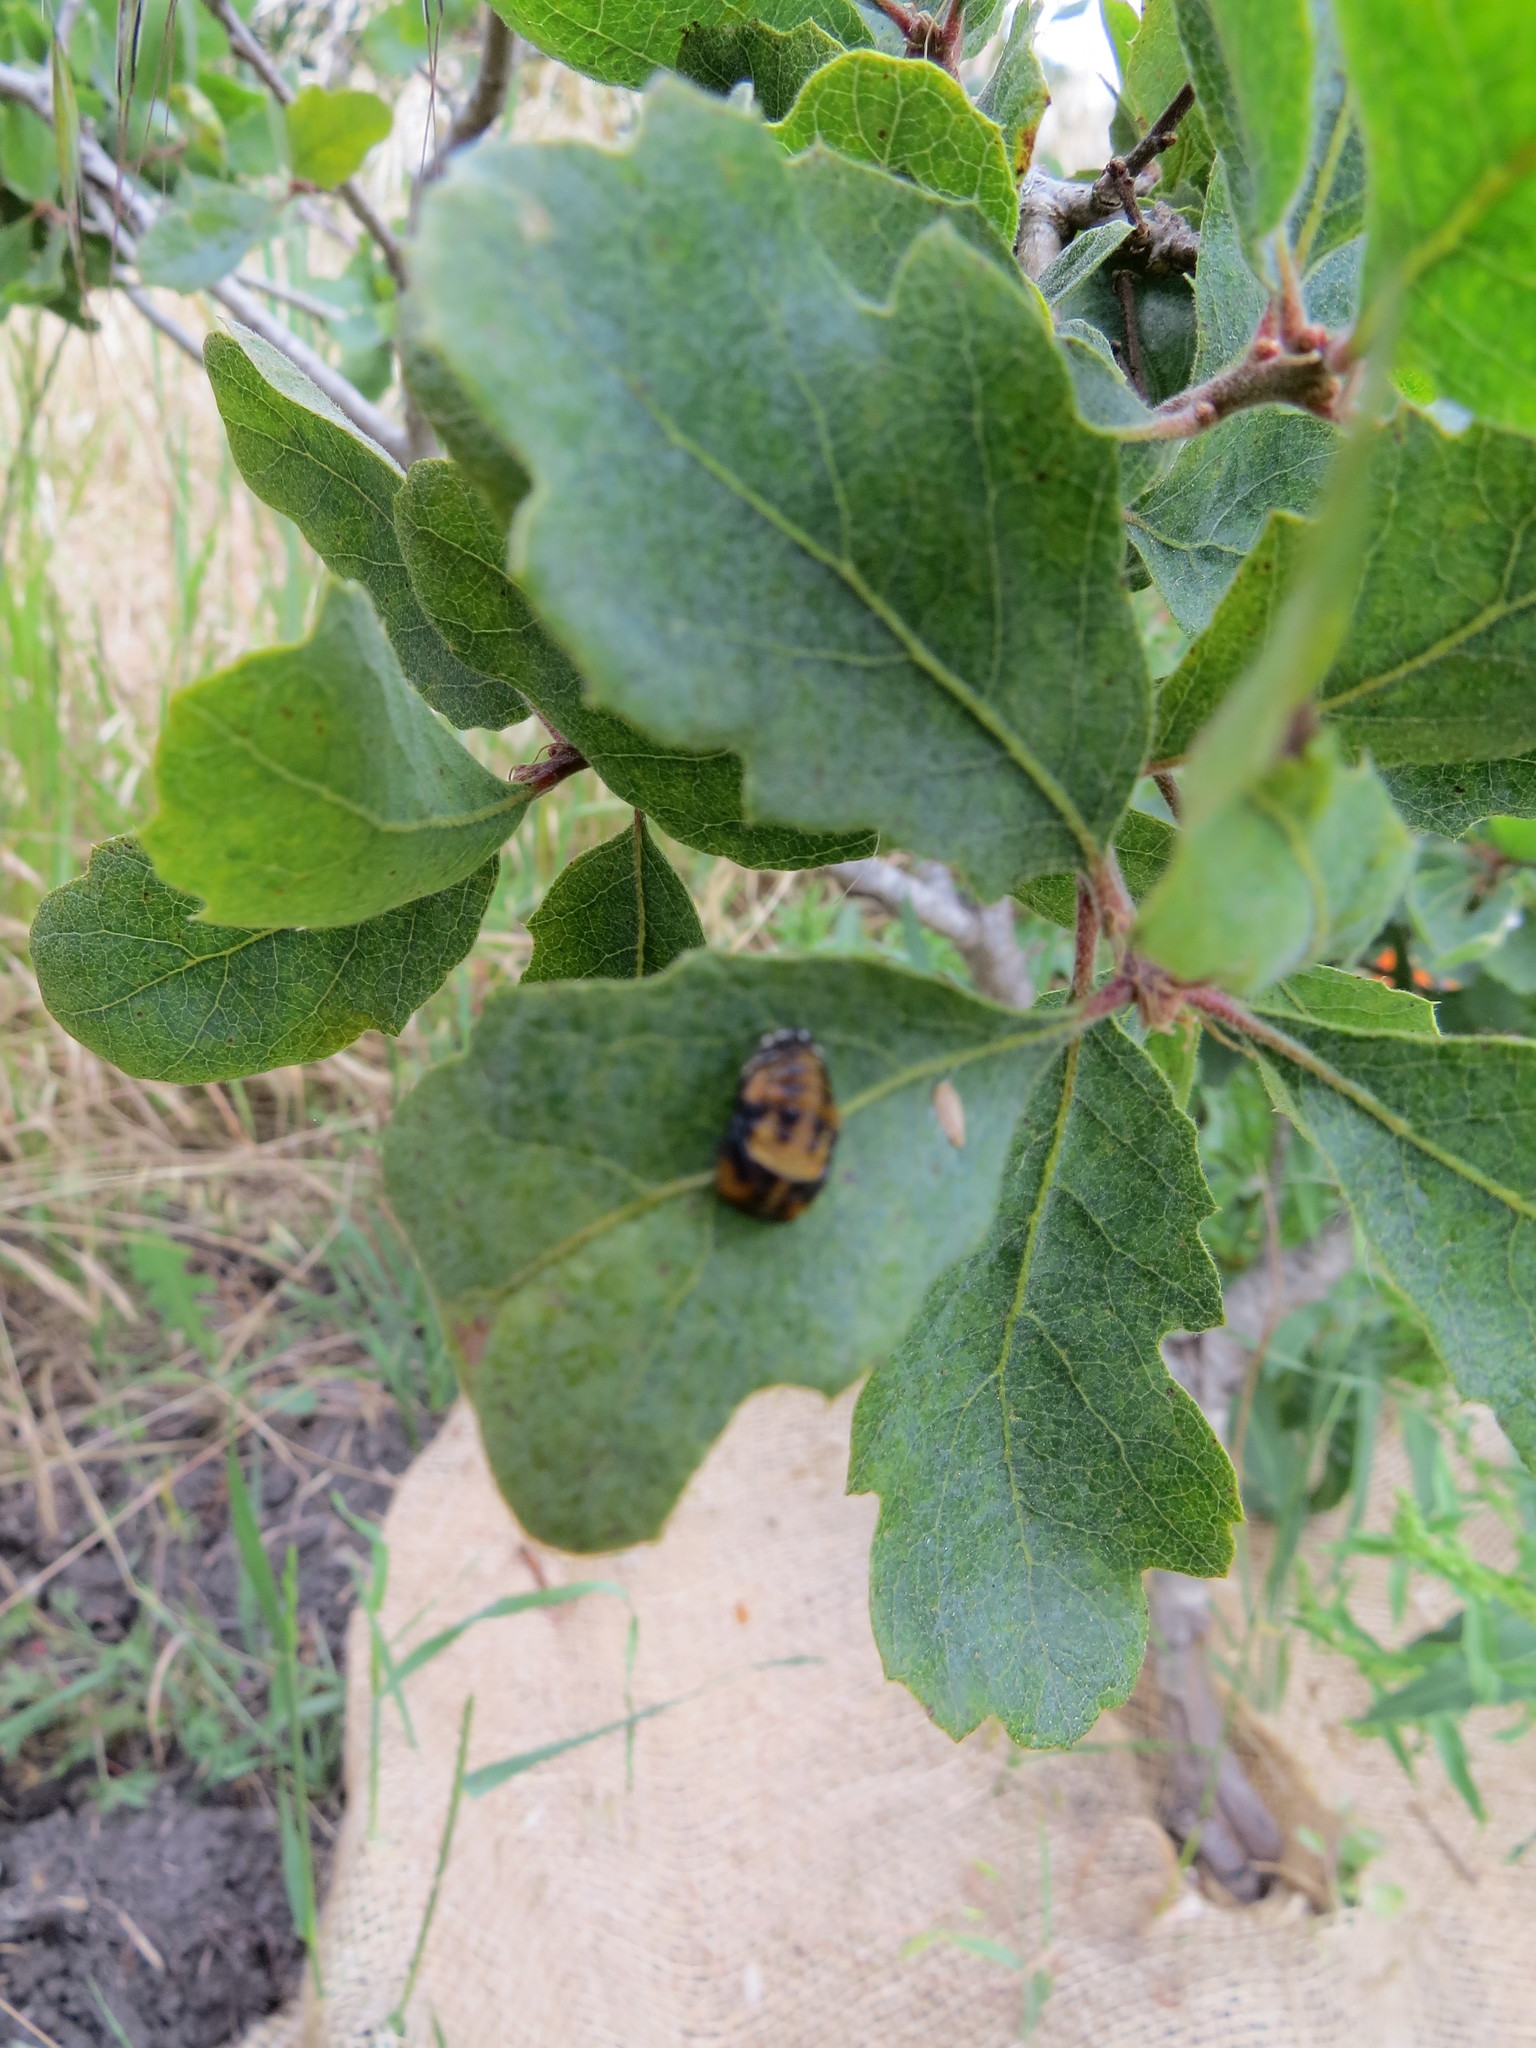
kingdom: Animalia
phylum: Arthropoda
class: Insecta
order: Coleoptera
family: Coccinellidae
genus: Coccinella
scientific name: Coccinella septempunctata
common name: Sevenspotted lady beetle
